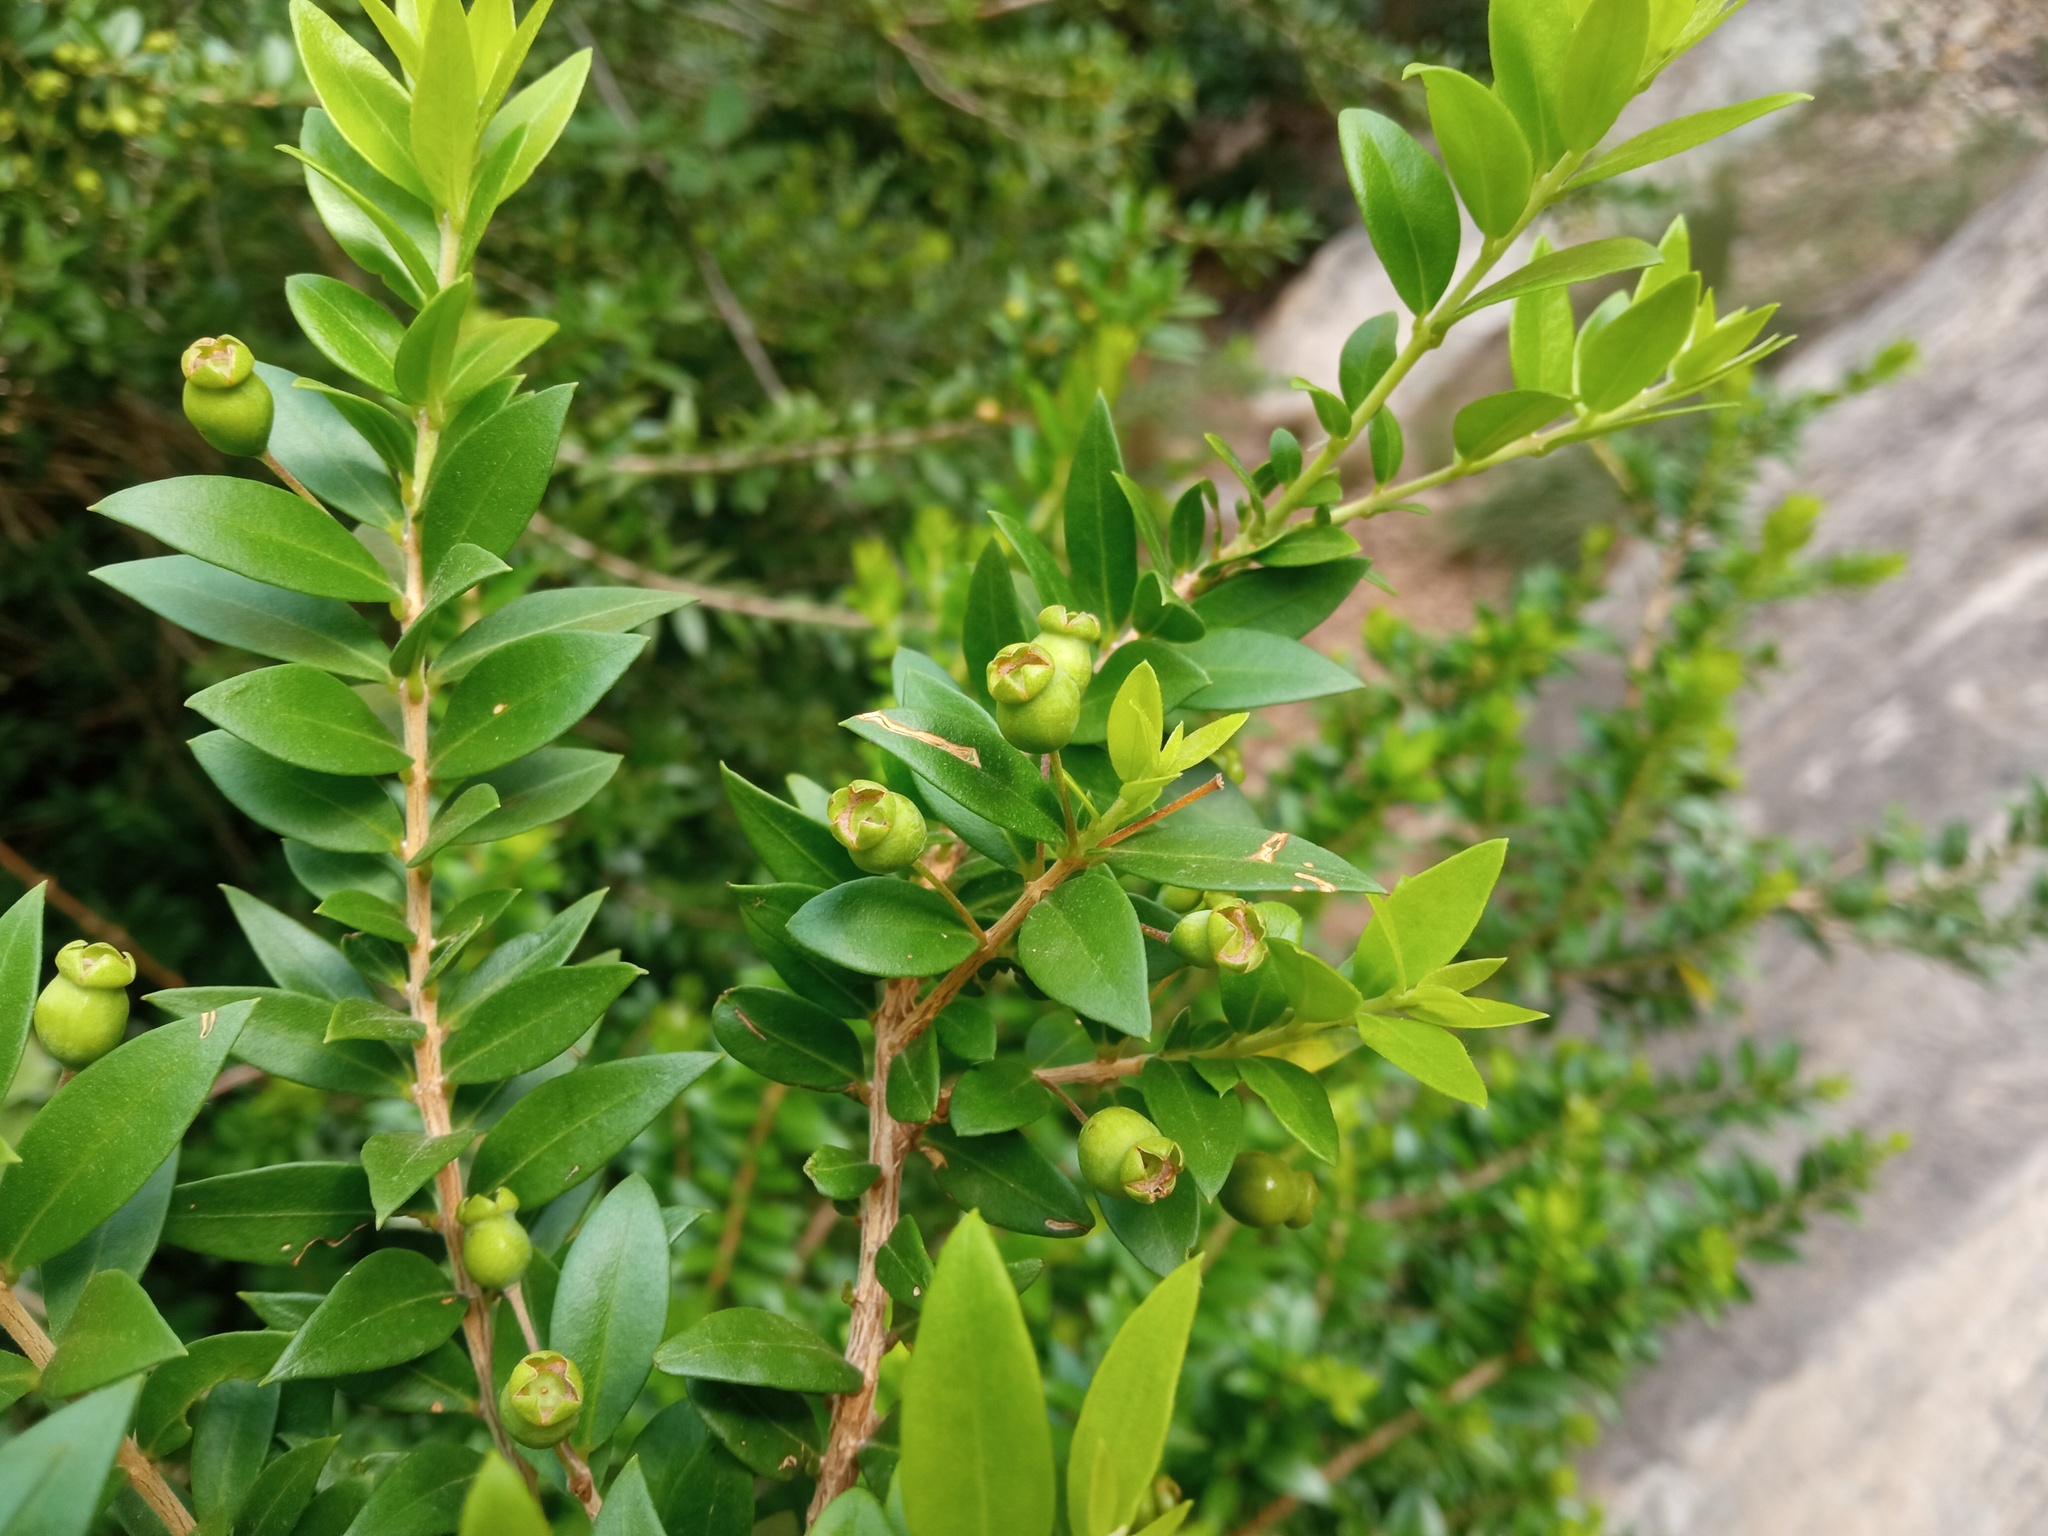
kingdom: Plantae
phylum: Tracheophyta
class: Magnoliopsida
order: Myrtales
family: Myrtaceae
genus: Myrtus
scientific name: Myrtus communis
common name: Myrtle
